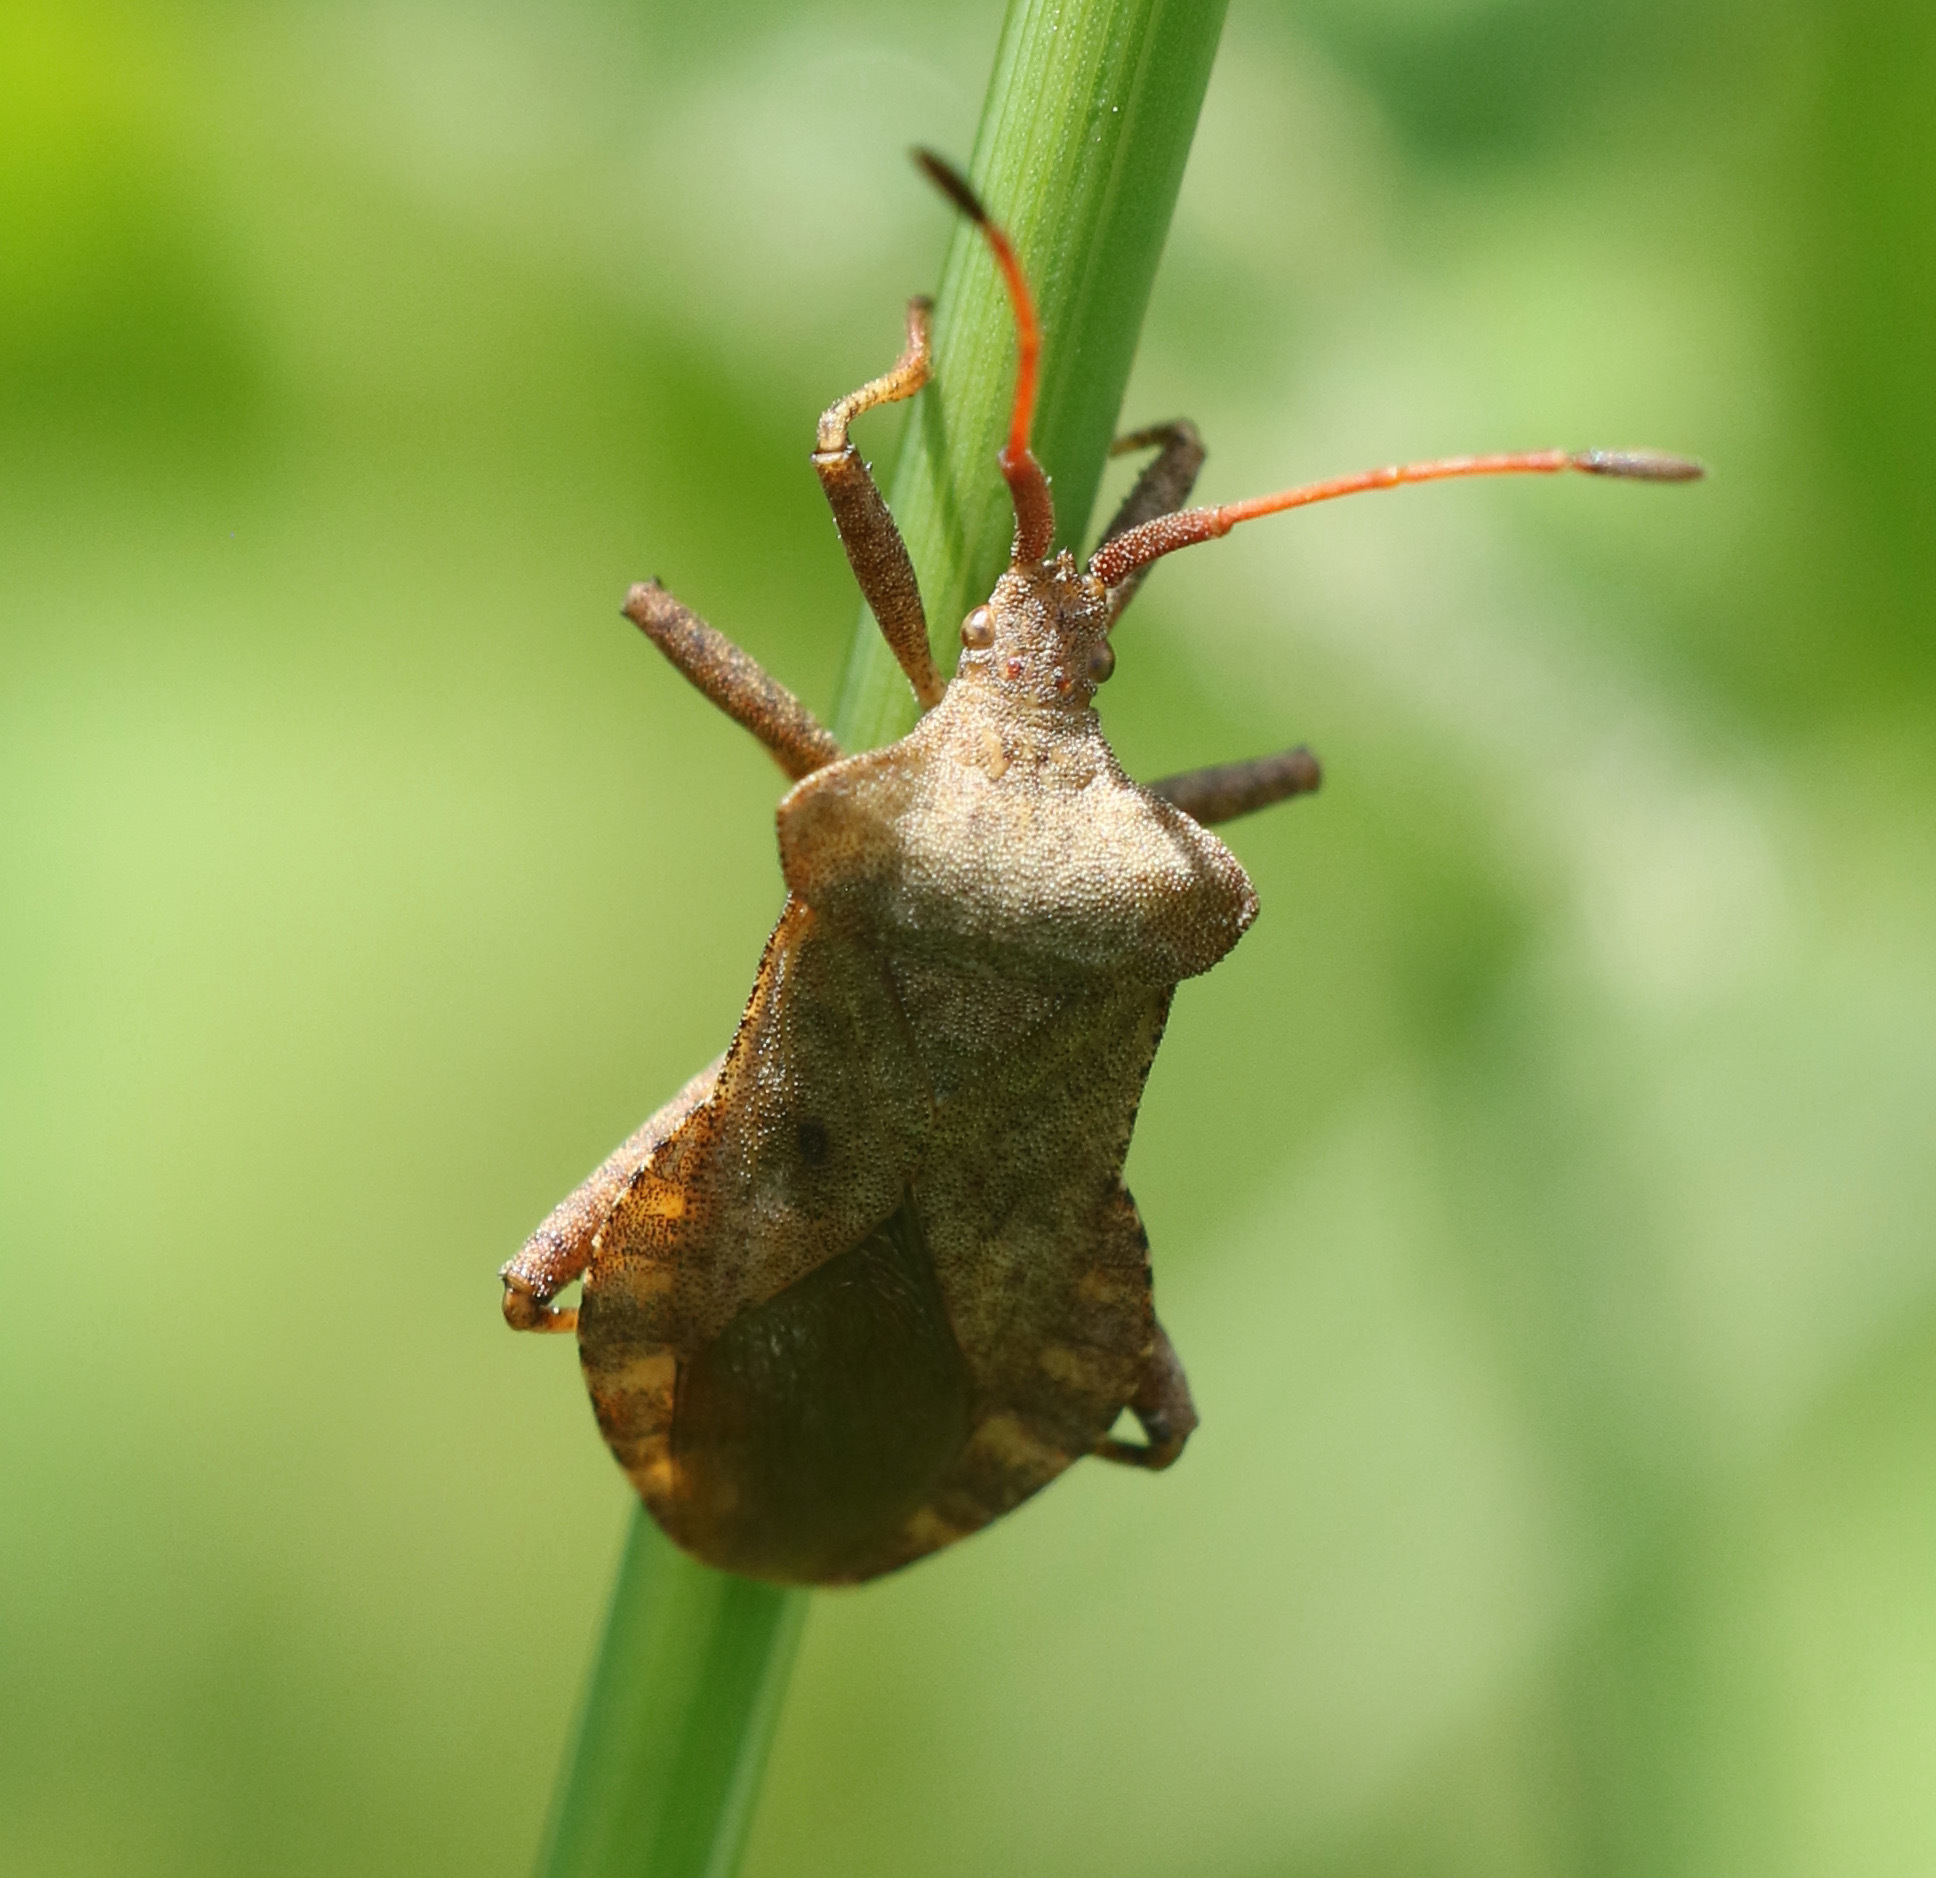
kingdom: Animalia
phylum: Arthropoda
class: Insecta
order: Hemiptera
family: Coreidae
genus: Coreus
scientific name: Coreus marginatus
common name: Dock bug
